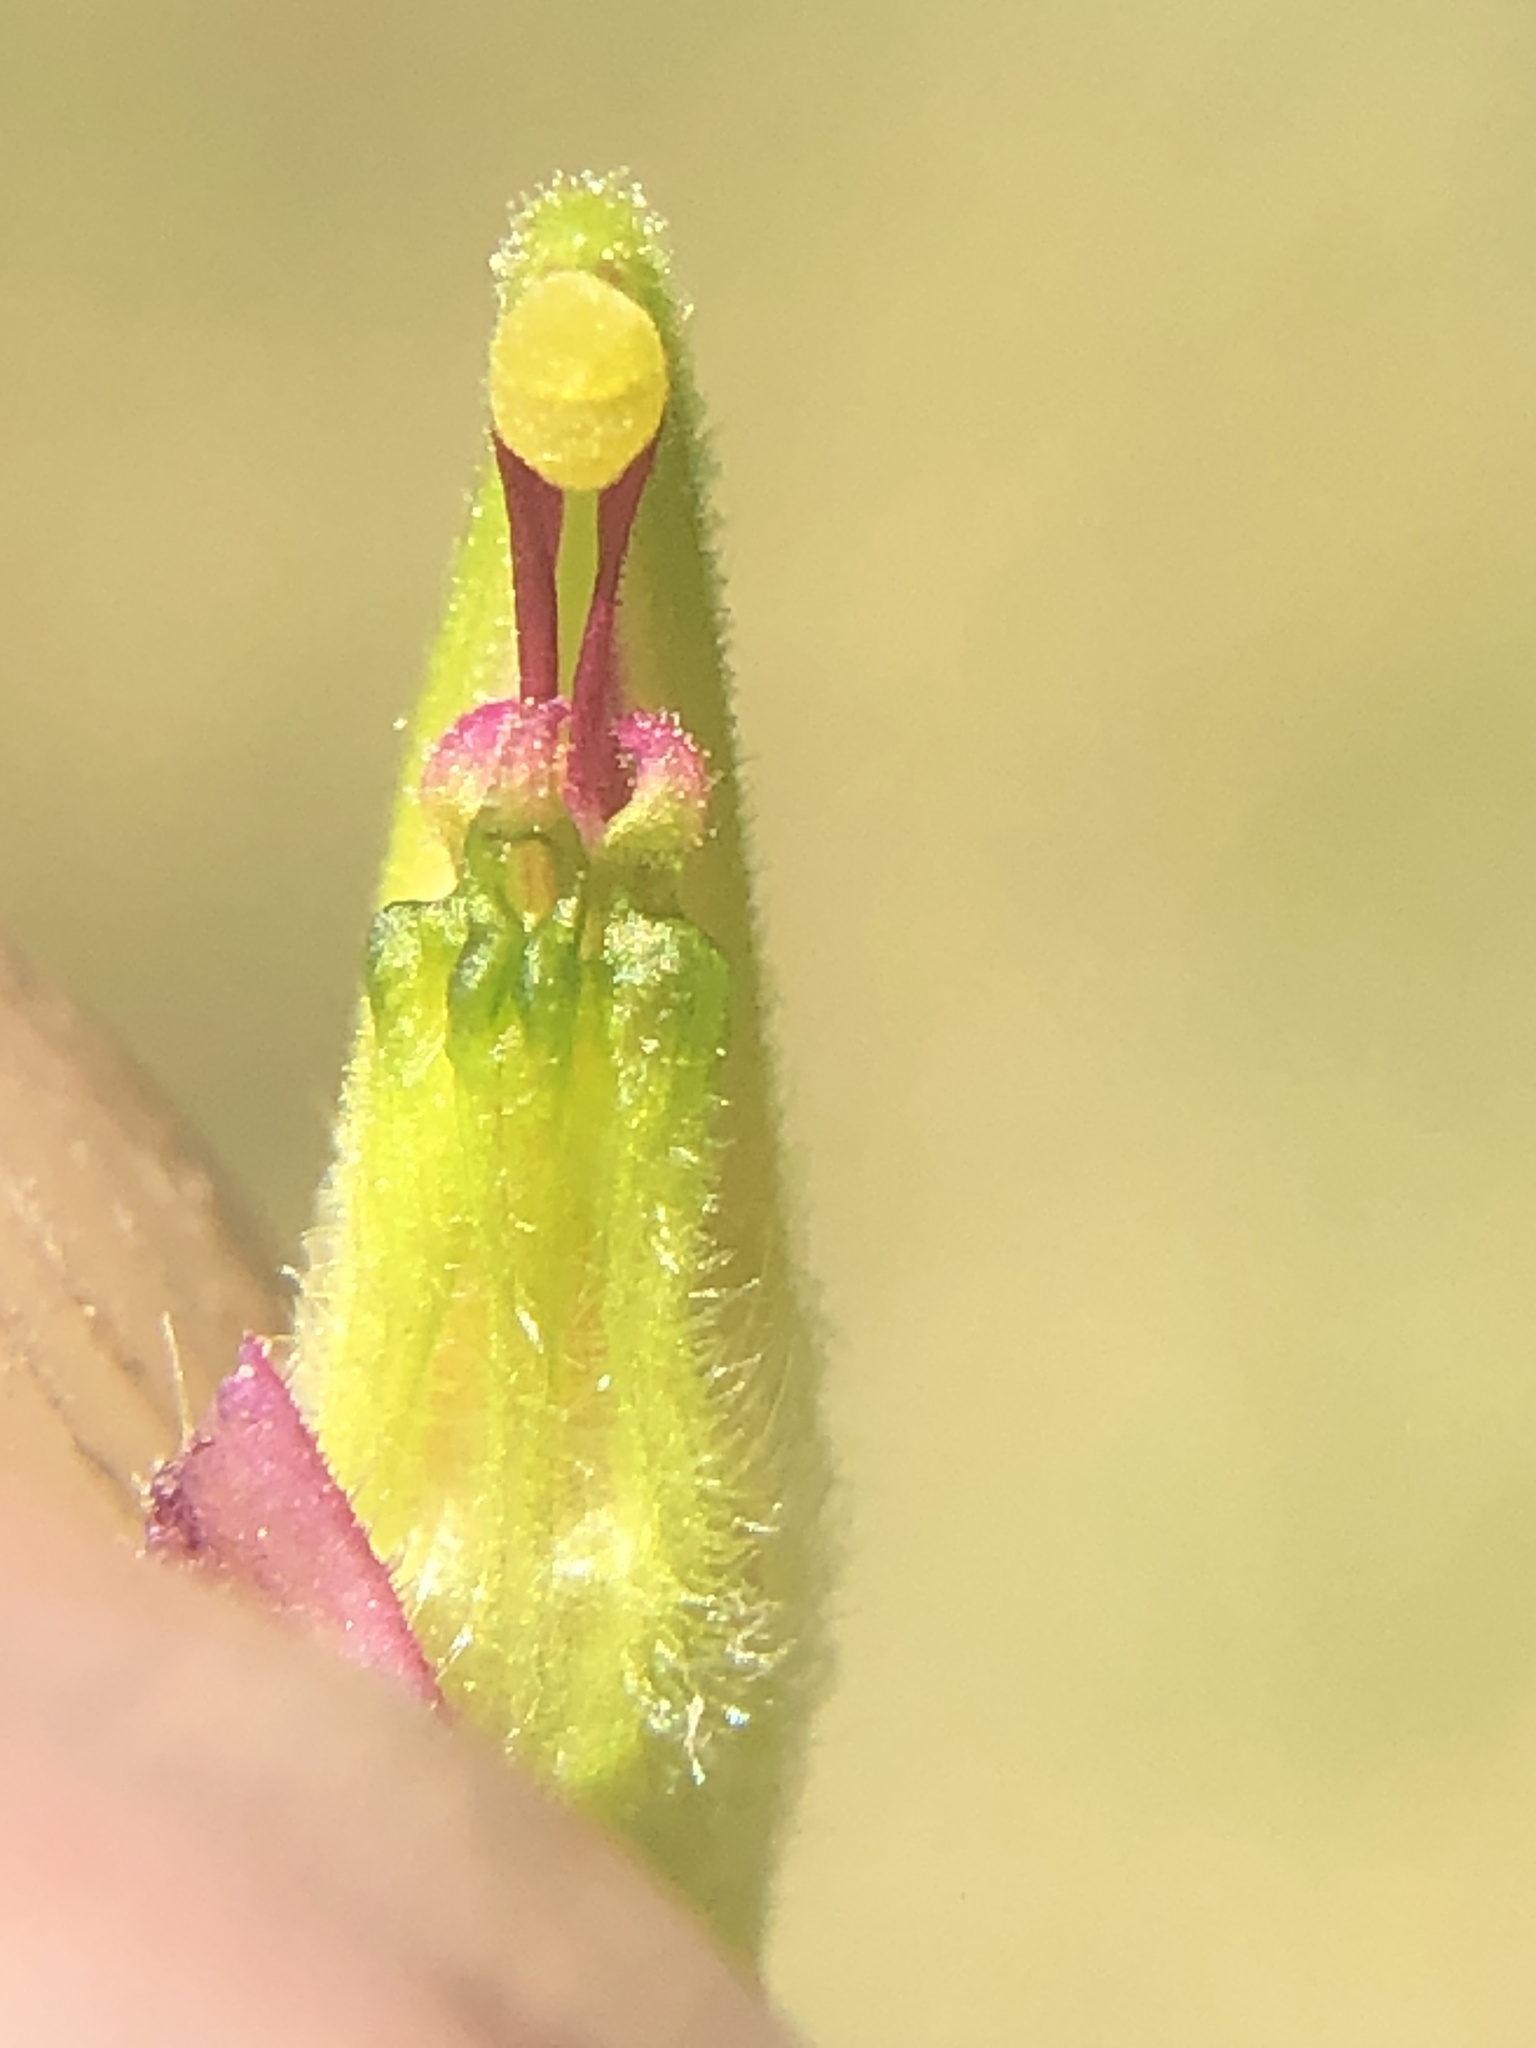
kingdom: Plantae
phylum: Tracheophyta
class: Magnoliopsida
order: Lamiales
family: Orobanchaceae
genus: Castilleja
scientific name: Castilleja lemmonii
